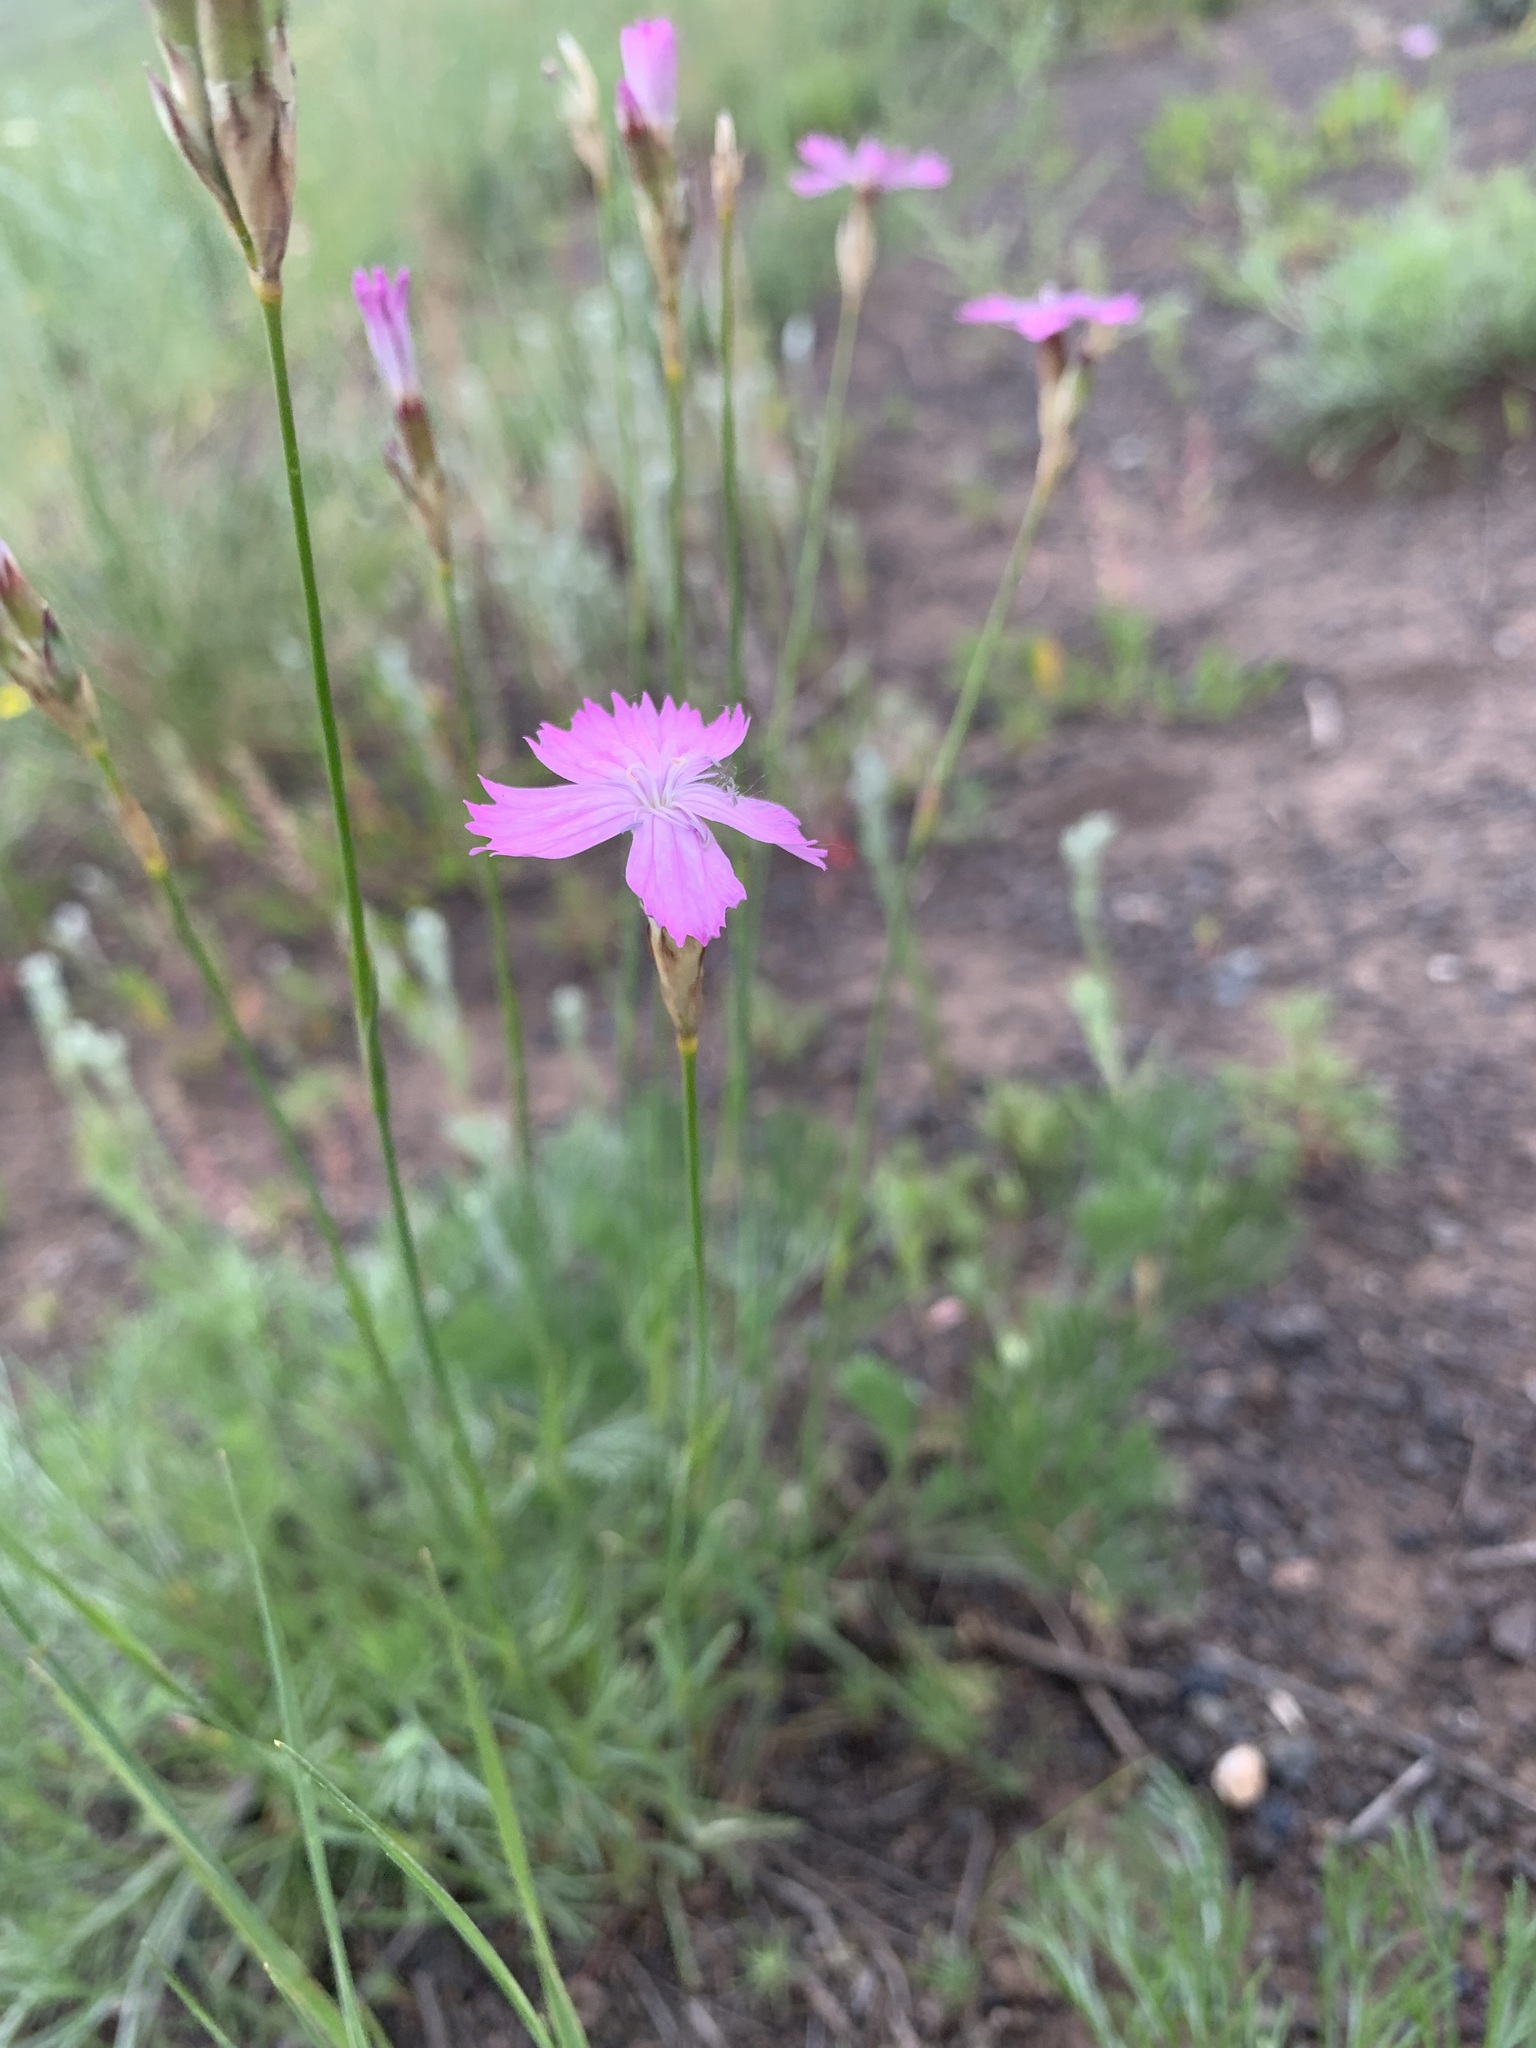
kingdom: Plantae
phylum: Tracheophyta
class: Magnoliopsida
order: Caryophyllales
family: Caryophyllaceae
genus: Dianthus
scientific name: Dianthus borbasii
